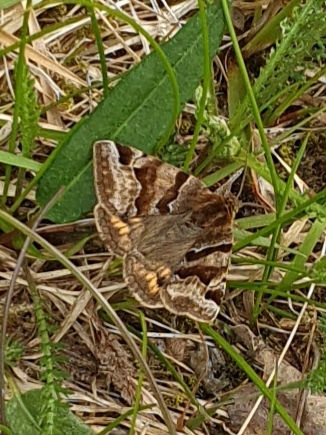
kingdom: Animalia
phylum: Arthropoda
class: Insecta
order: Lepidoptera
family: Erebidae
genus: Euclidia
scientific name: Euclidia glyphica
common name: Burnet companion
